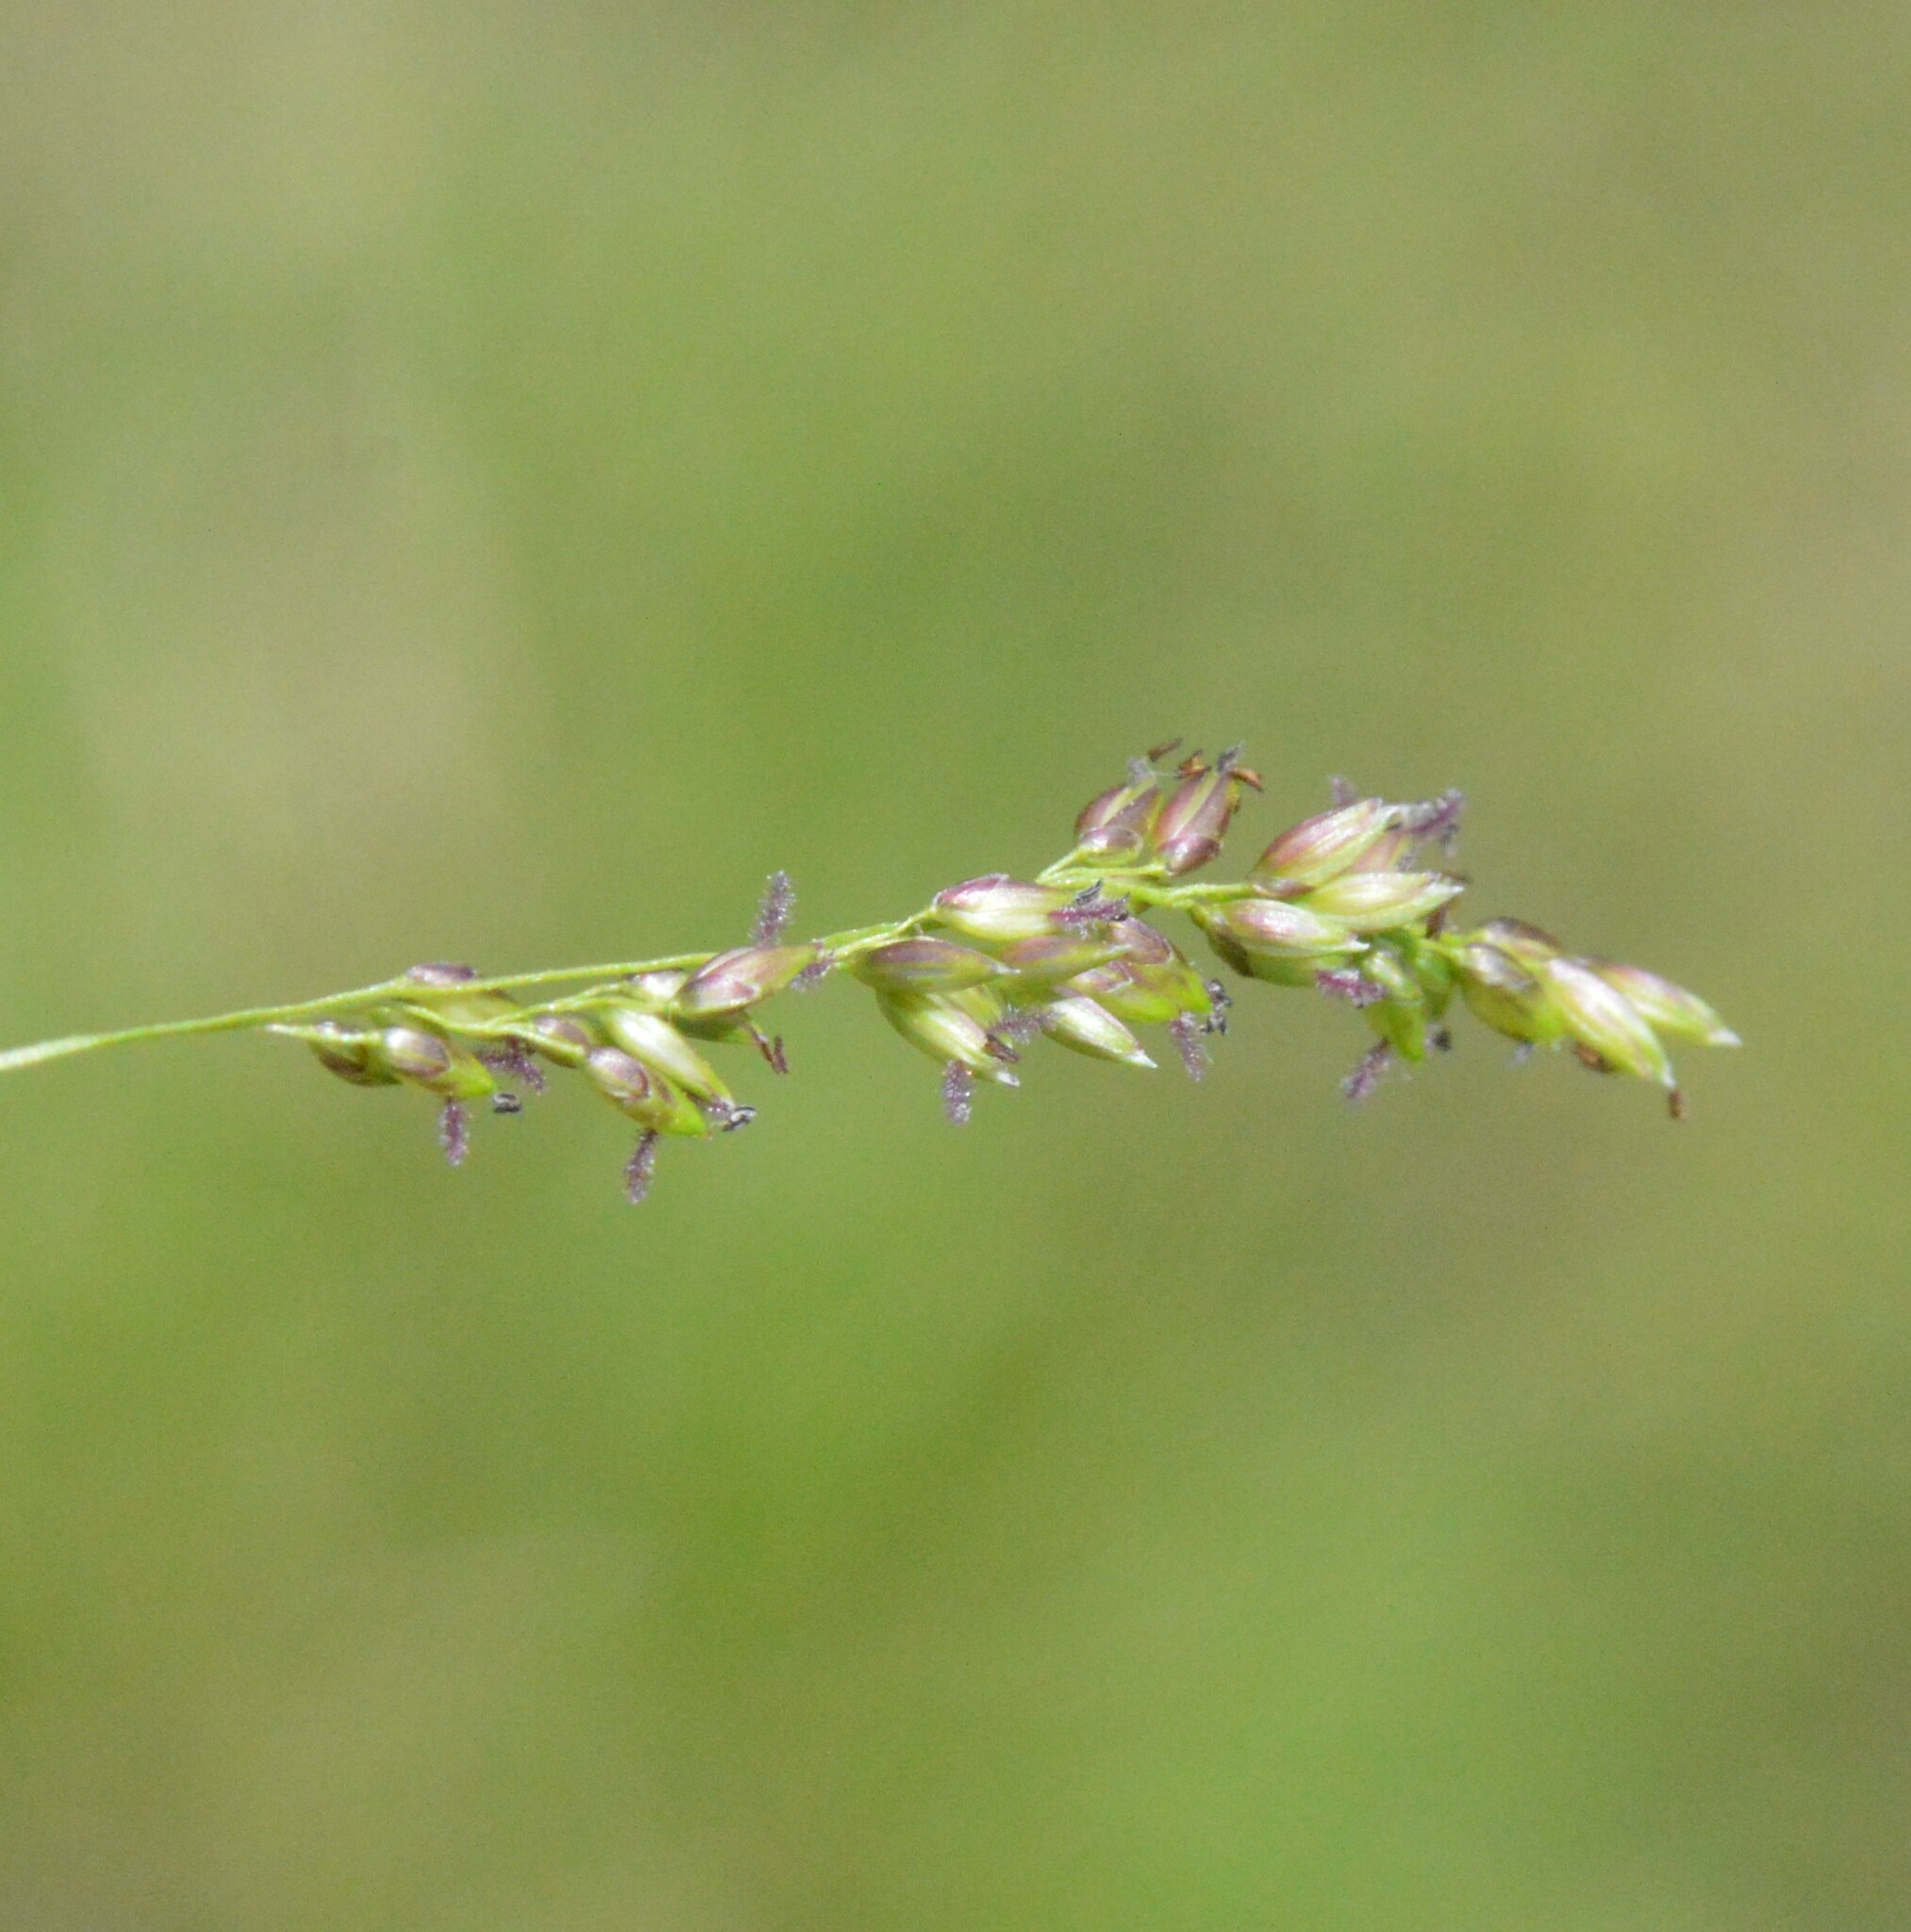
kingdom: Plantae
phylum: Tracheophyta
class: Liliopsida
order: Poales
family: Poaceae
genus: Steinchisma
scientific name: Steinchisma hians
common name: Gaping panic grass
